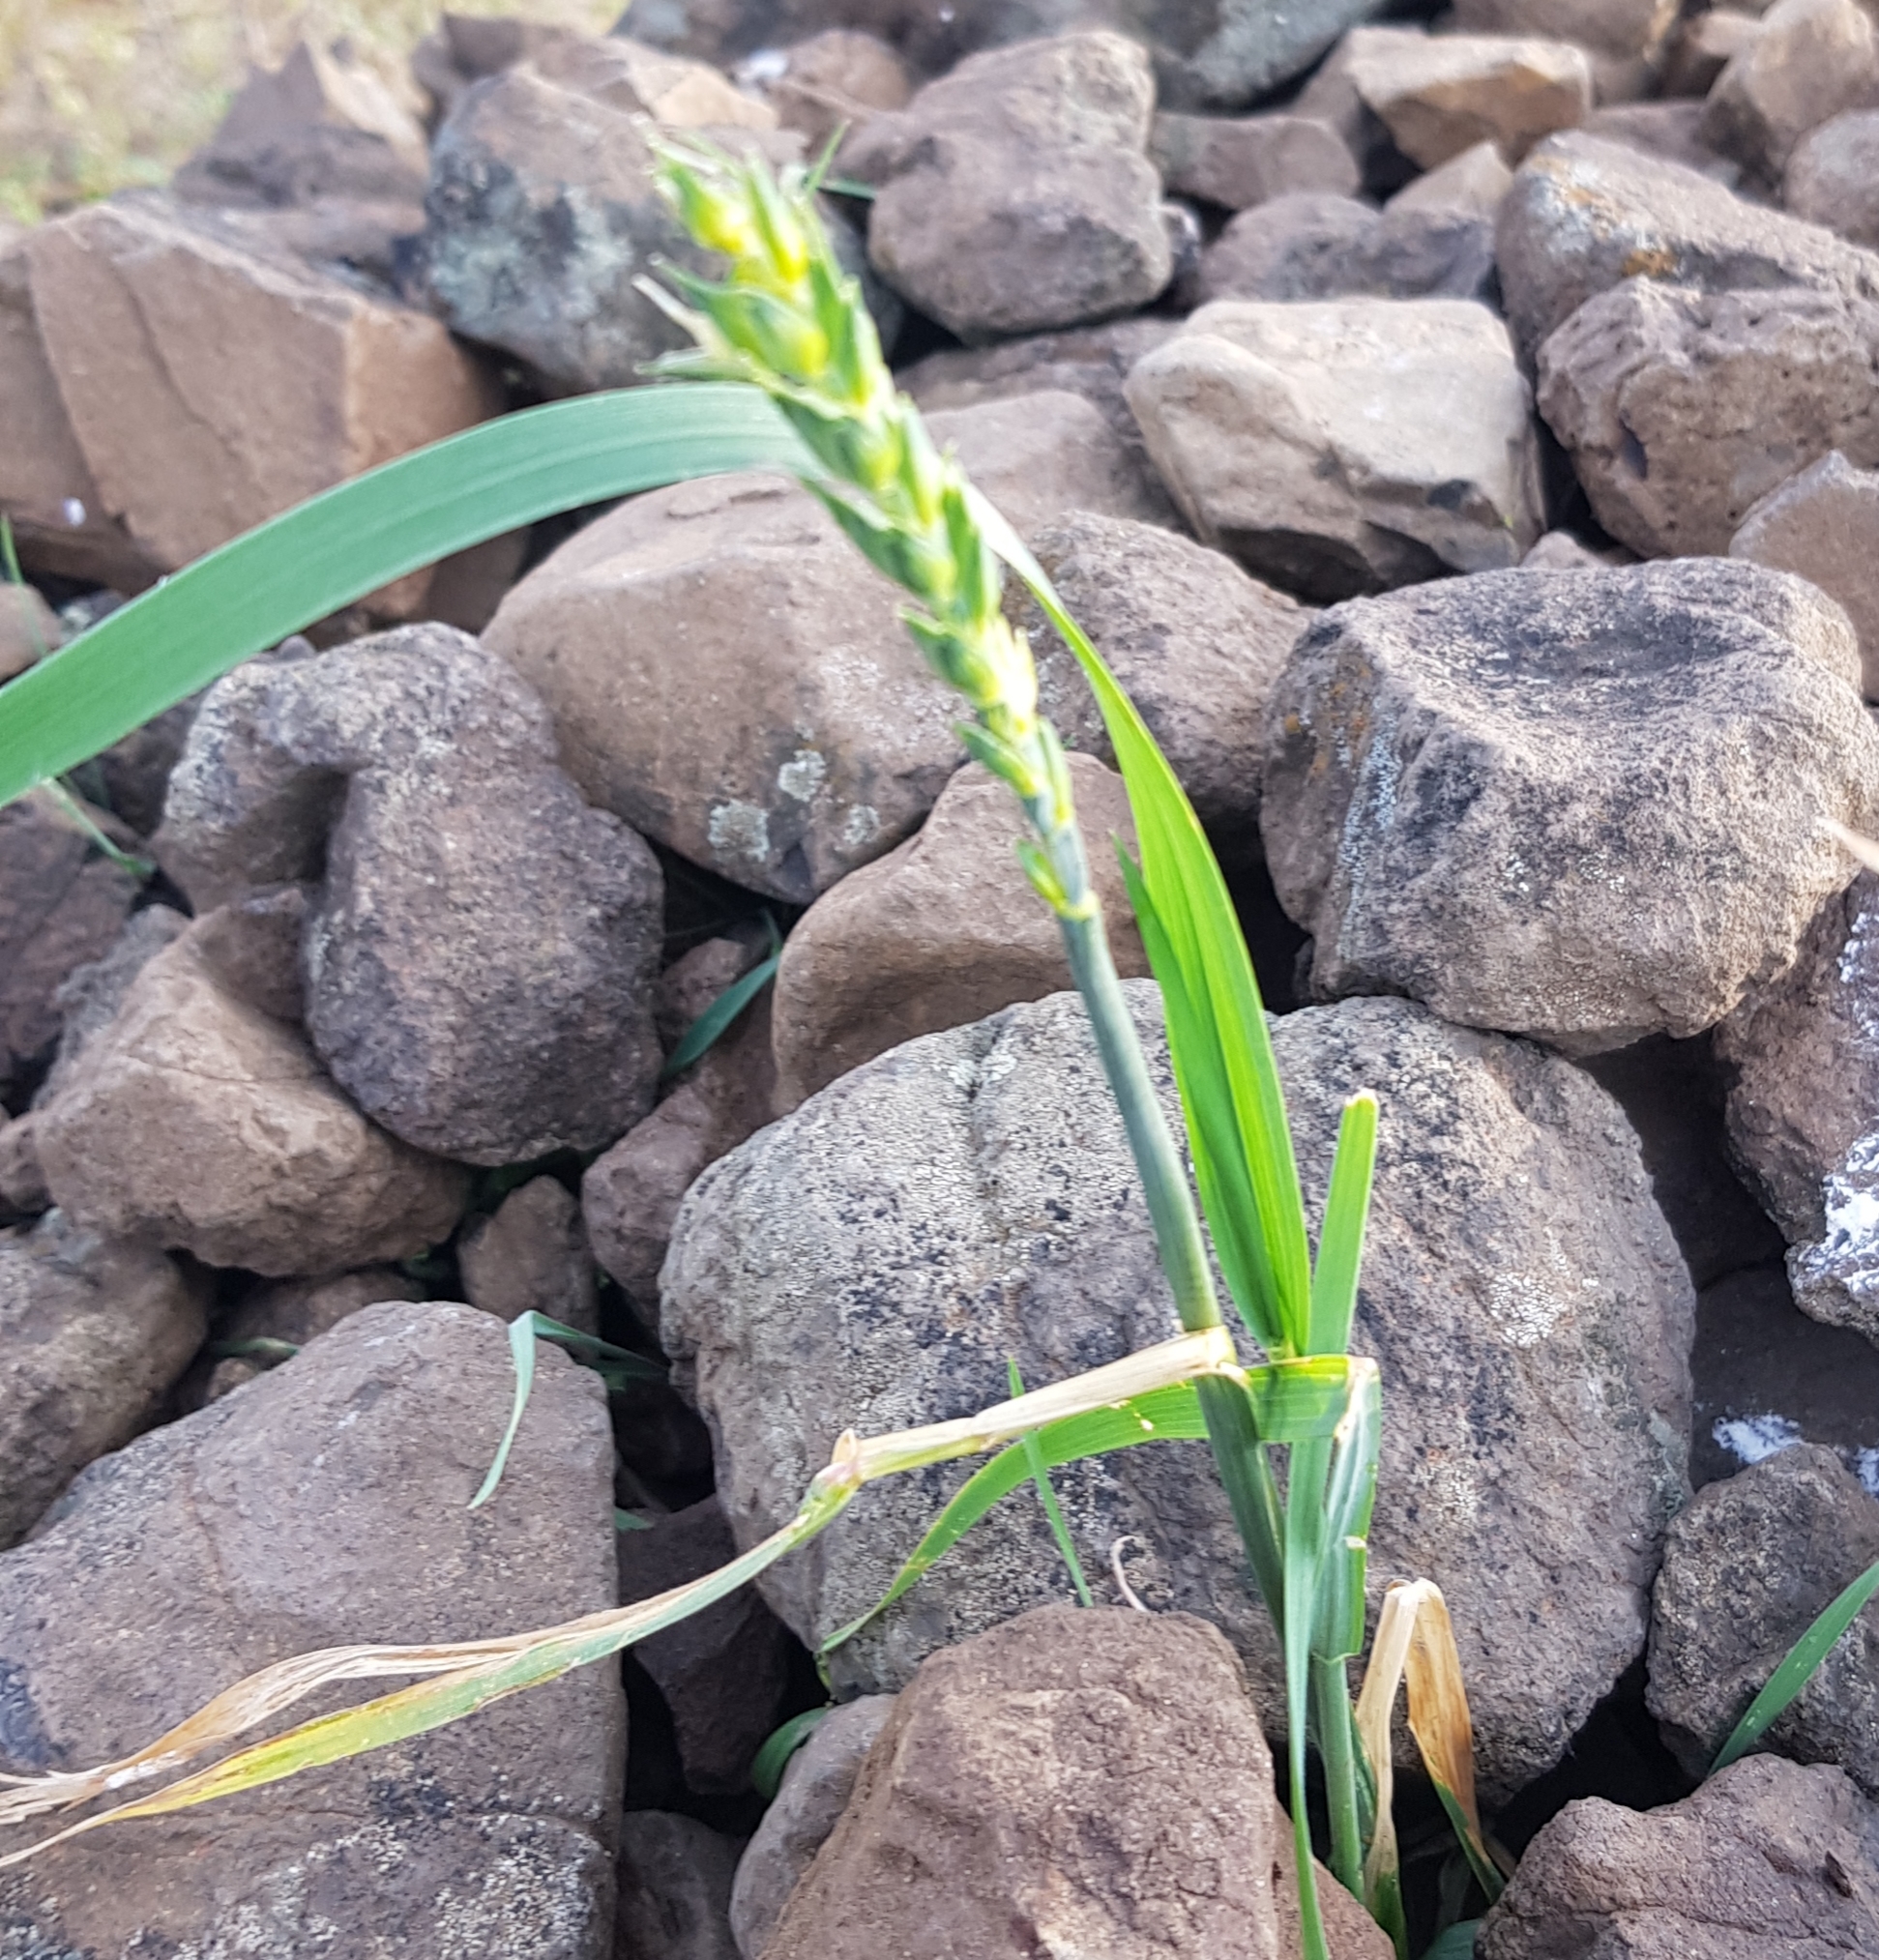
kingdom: Plantae
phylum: Tracheophyta
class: Liliopsida
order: Poales
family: Poaceae
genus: Triticum
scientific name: Triticum aestivum
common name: Common wheat
